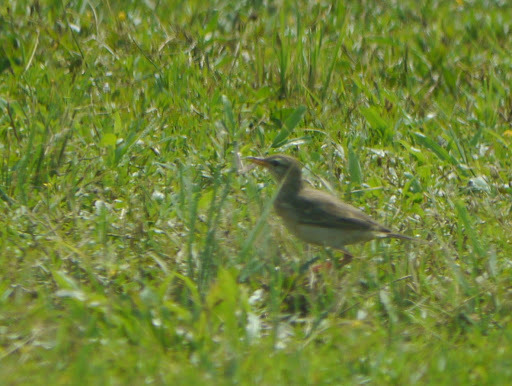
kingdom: Animalia
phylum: Chordata
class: Aves
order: Passeriformes
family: Motacillidae
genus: Anthus
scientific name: Anthus pallidiventris
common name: Long-legged pipit
